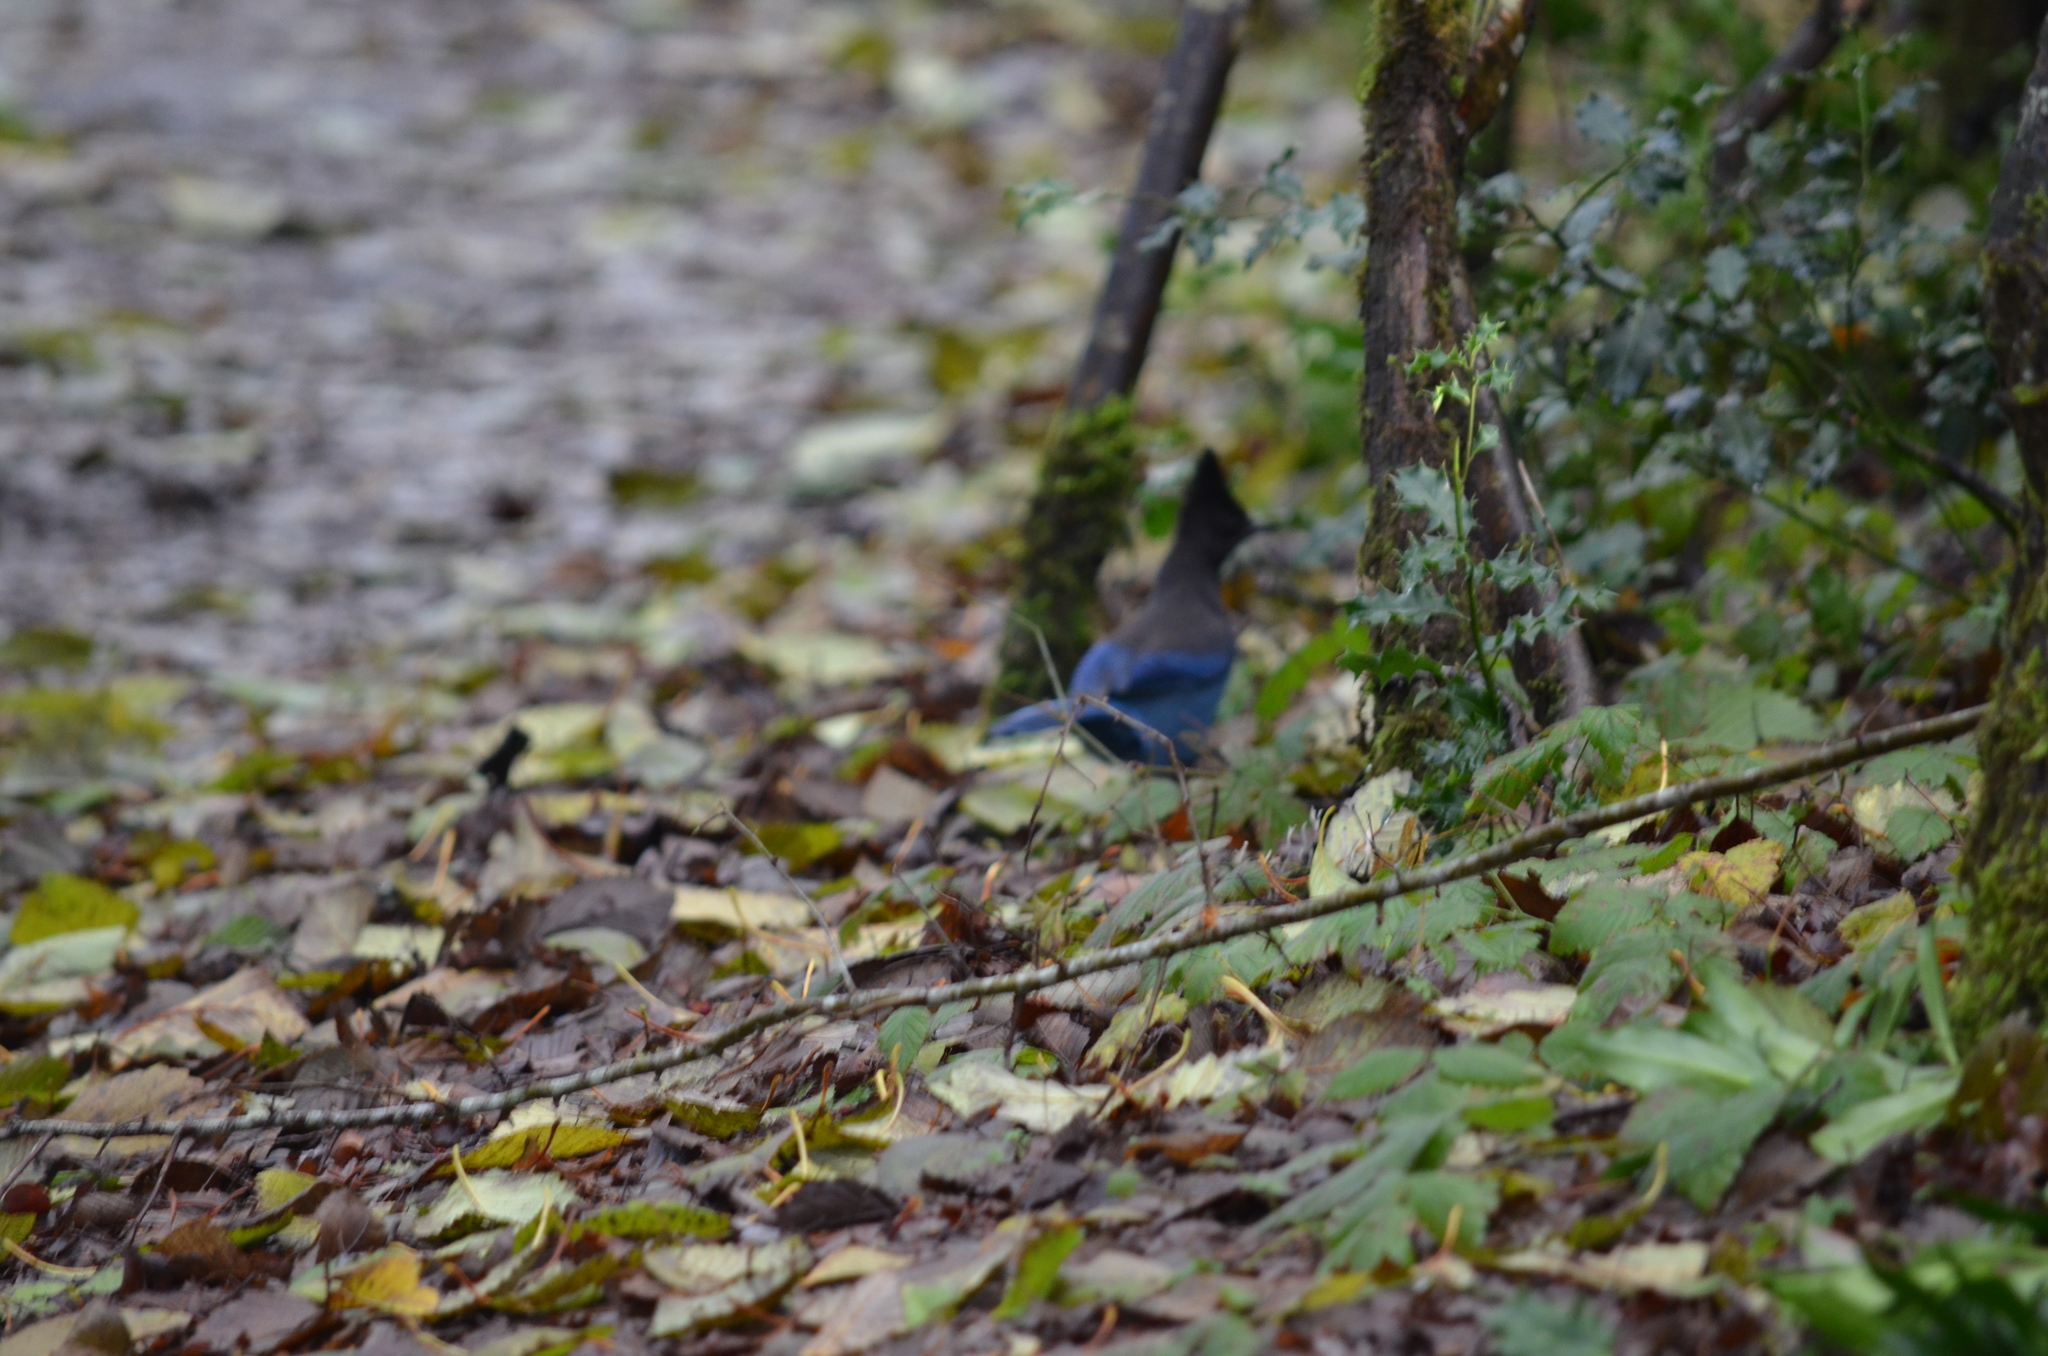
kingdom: Animalia
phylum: Chordata
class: Aves
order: Passeriformes
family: Corvidae
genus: Cyanocitta
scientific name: Cyanocitta stelleri
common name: Steller's jay
